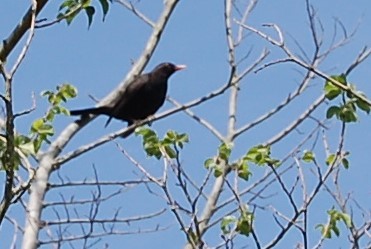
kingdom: Animalia
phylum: Chordata
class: Aves
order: Passeriformes
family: Turdidae
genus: Turdus
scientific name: Turdus merula
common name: Common blackbird
